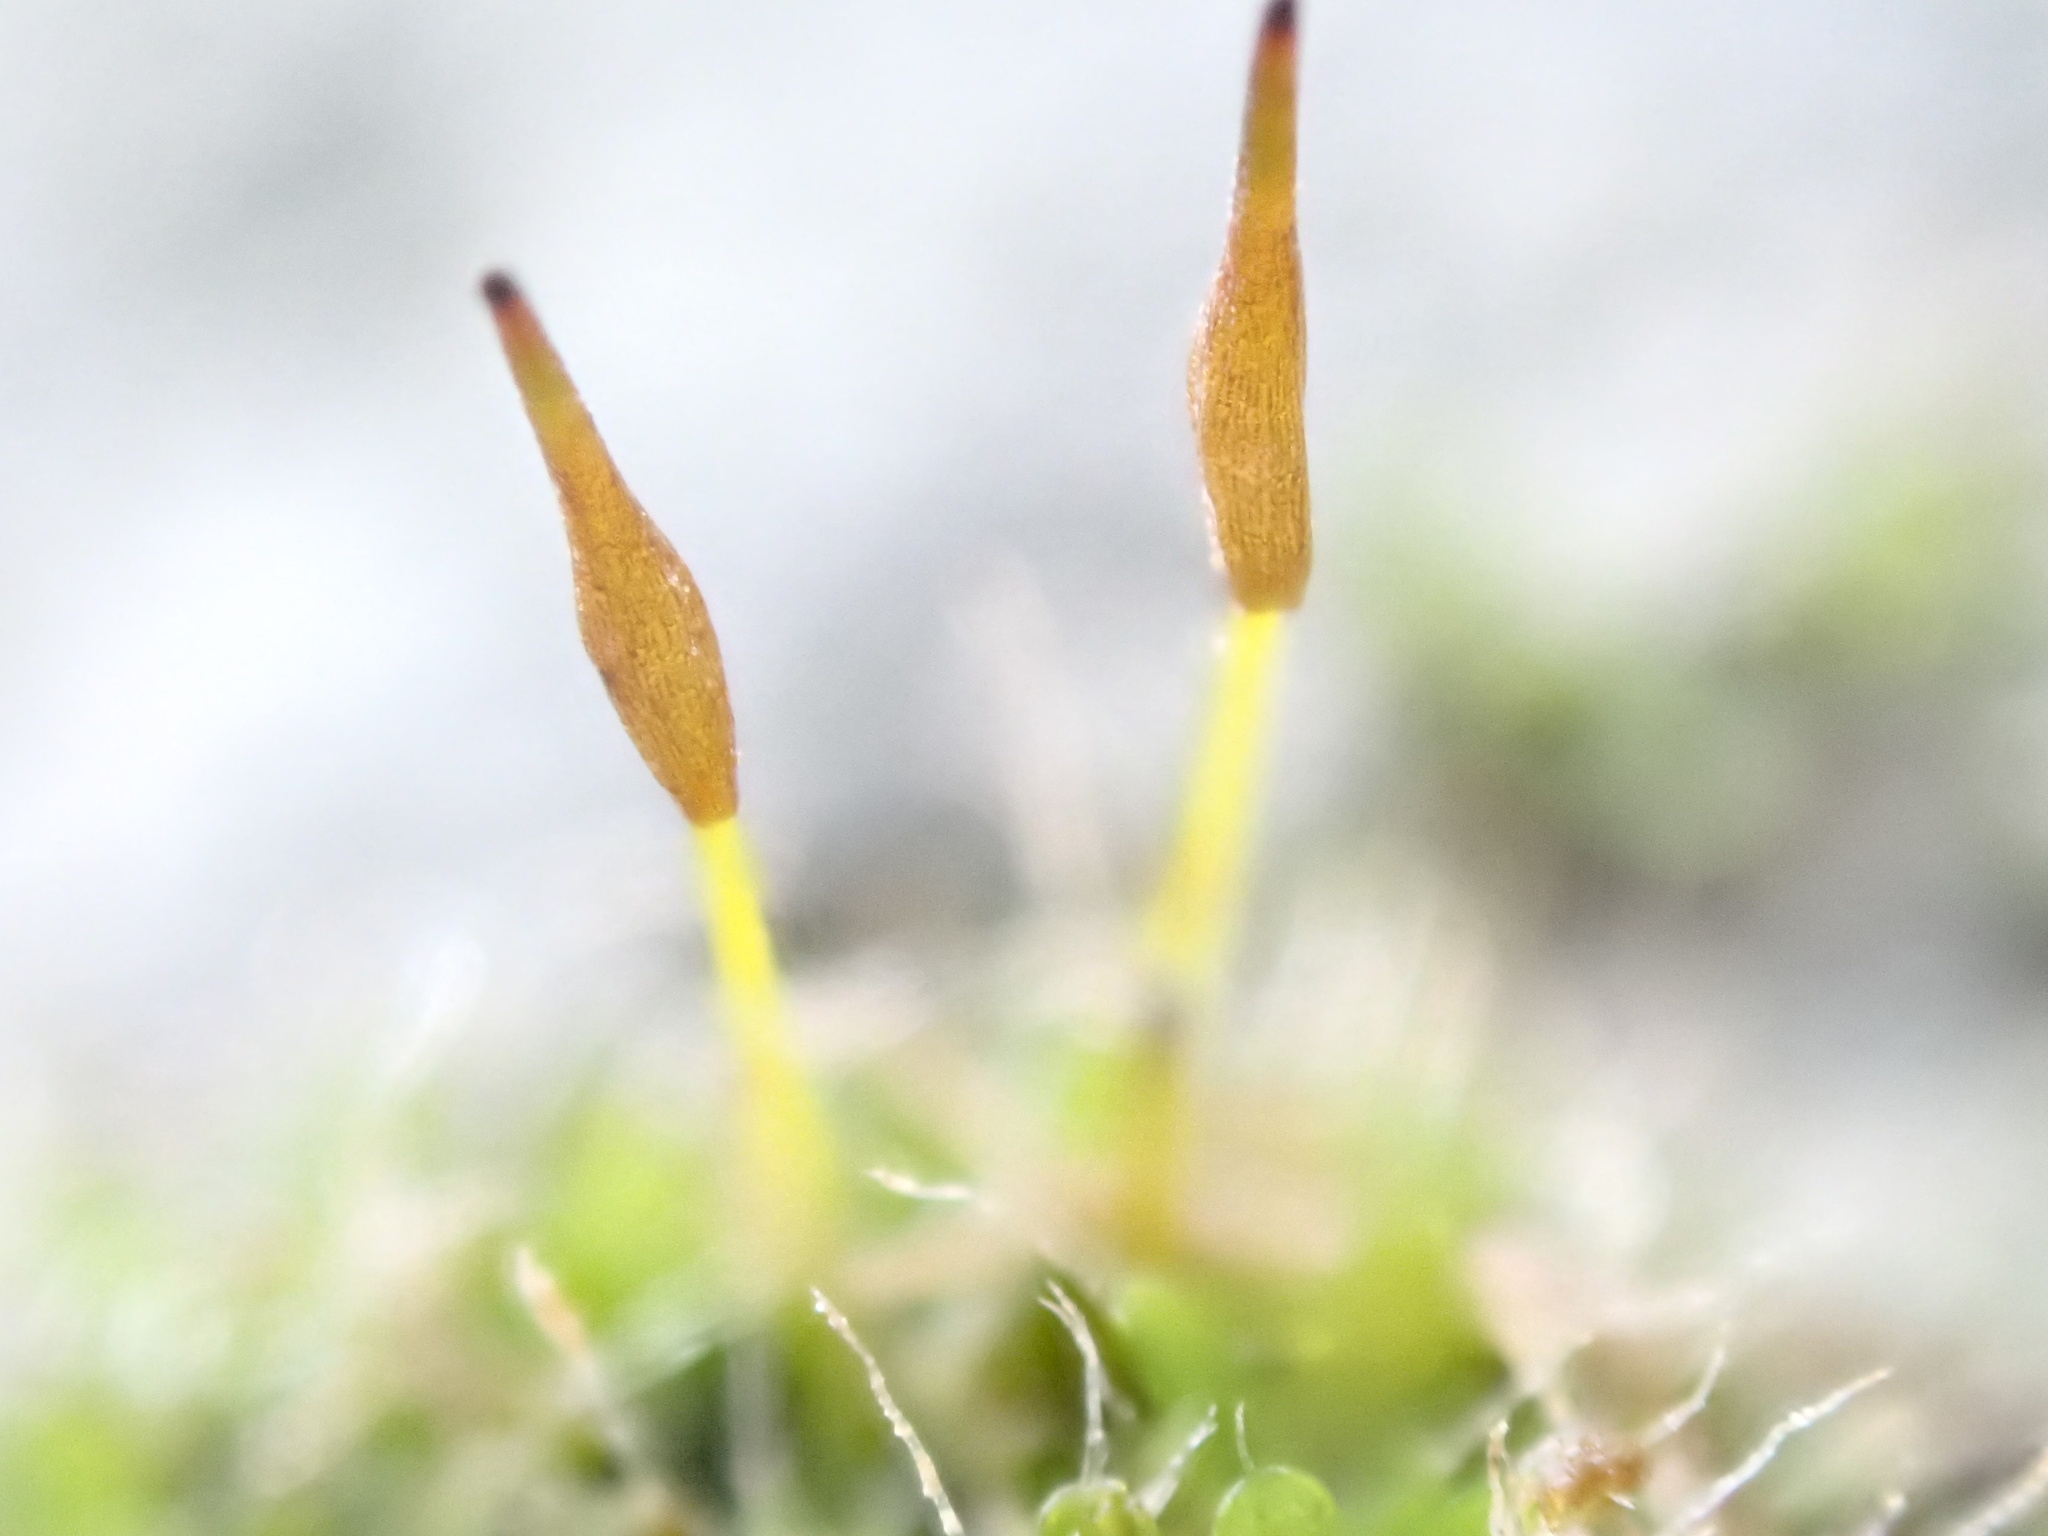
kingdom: Plantae
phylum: Bryophyta
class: Bryopsida
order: Pottiales
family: Pottiaceae
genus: Tortula
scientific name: Tortula muralis
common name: Wall screw-moss
